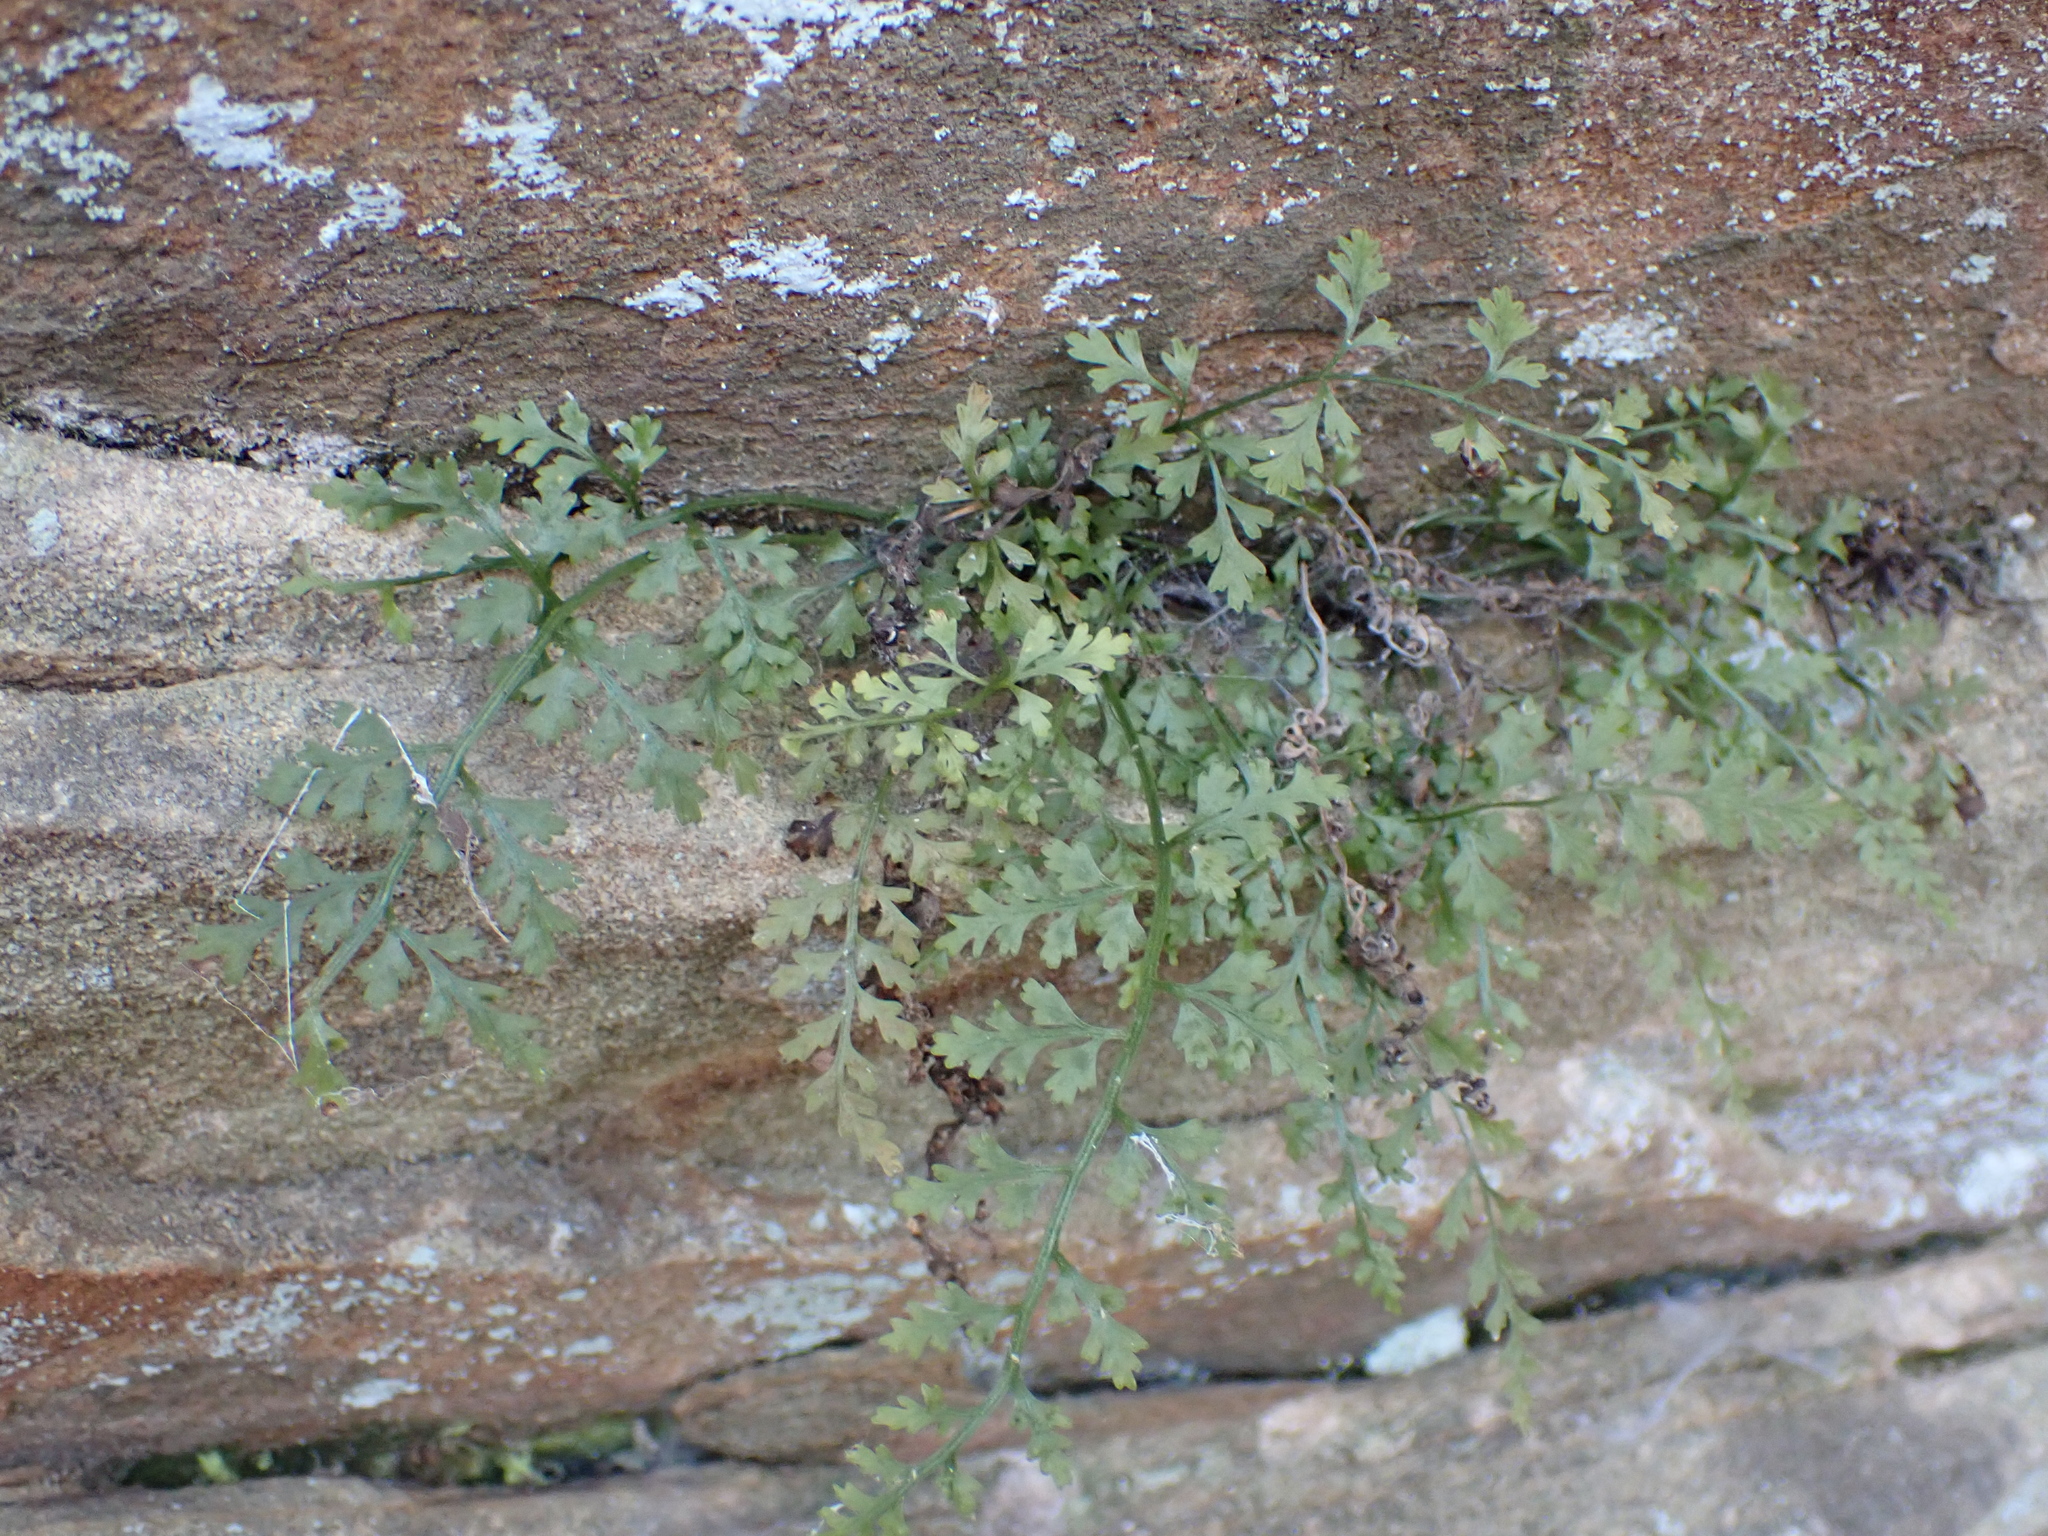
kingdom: Plantae
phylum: Tracheophyta
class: Polypodiopsida
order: Polypodiales
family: Aspleniaceae
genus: Asplenium
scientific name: Asplenium montanum
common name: Mountain spleenwort
